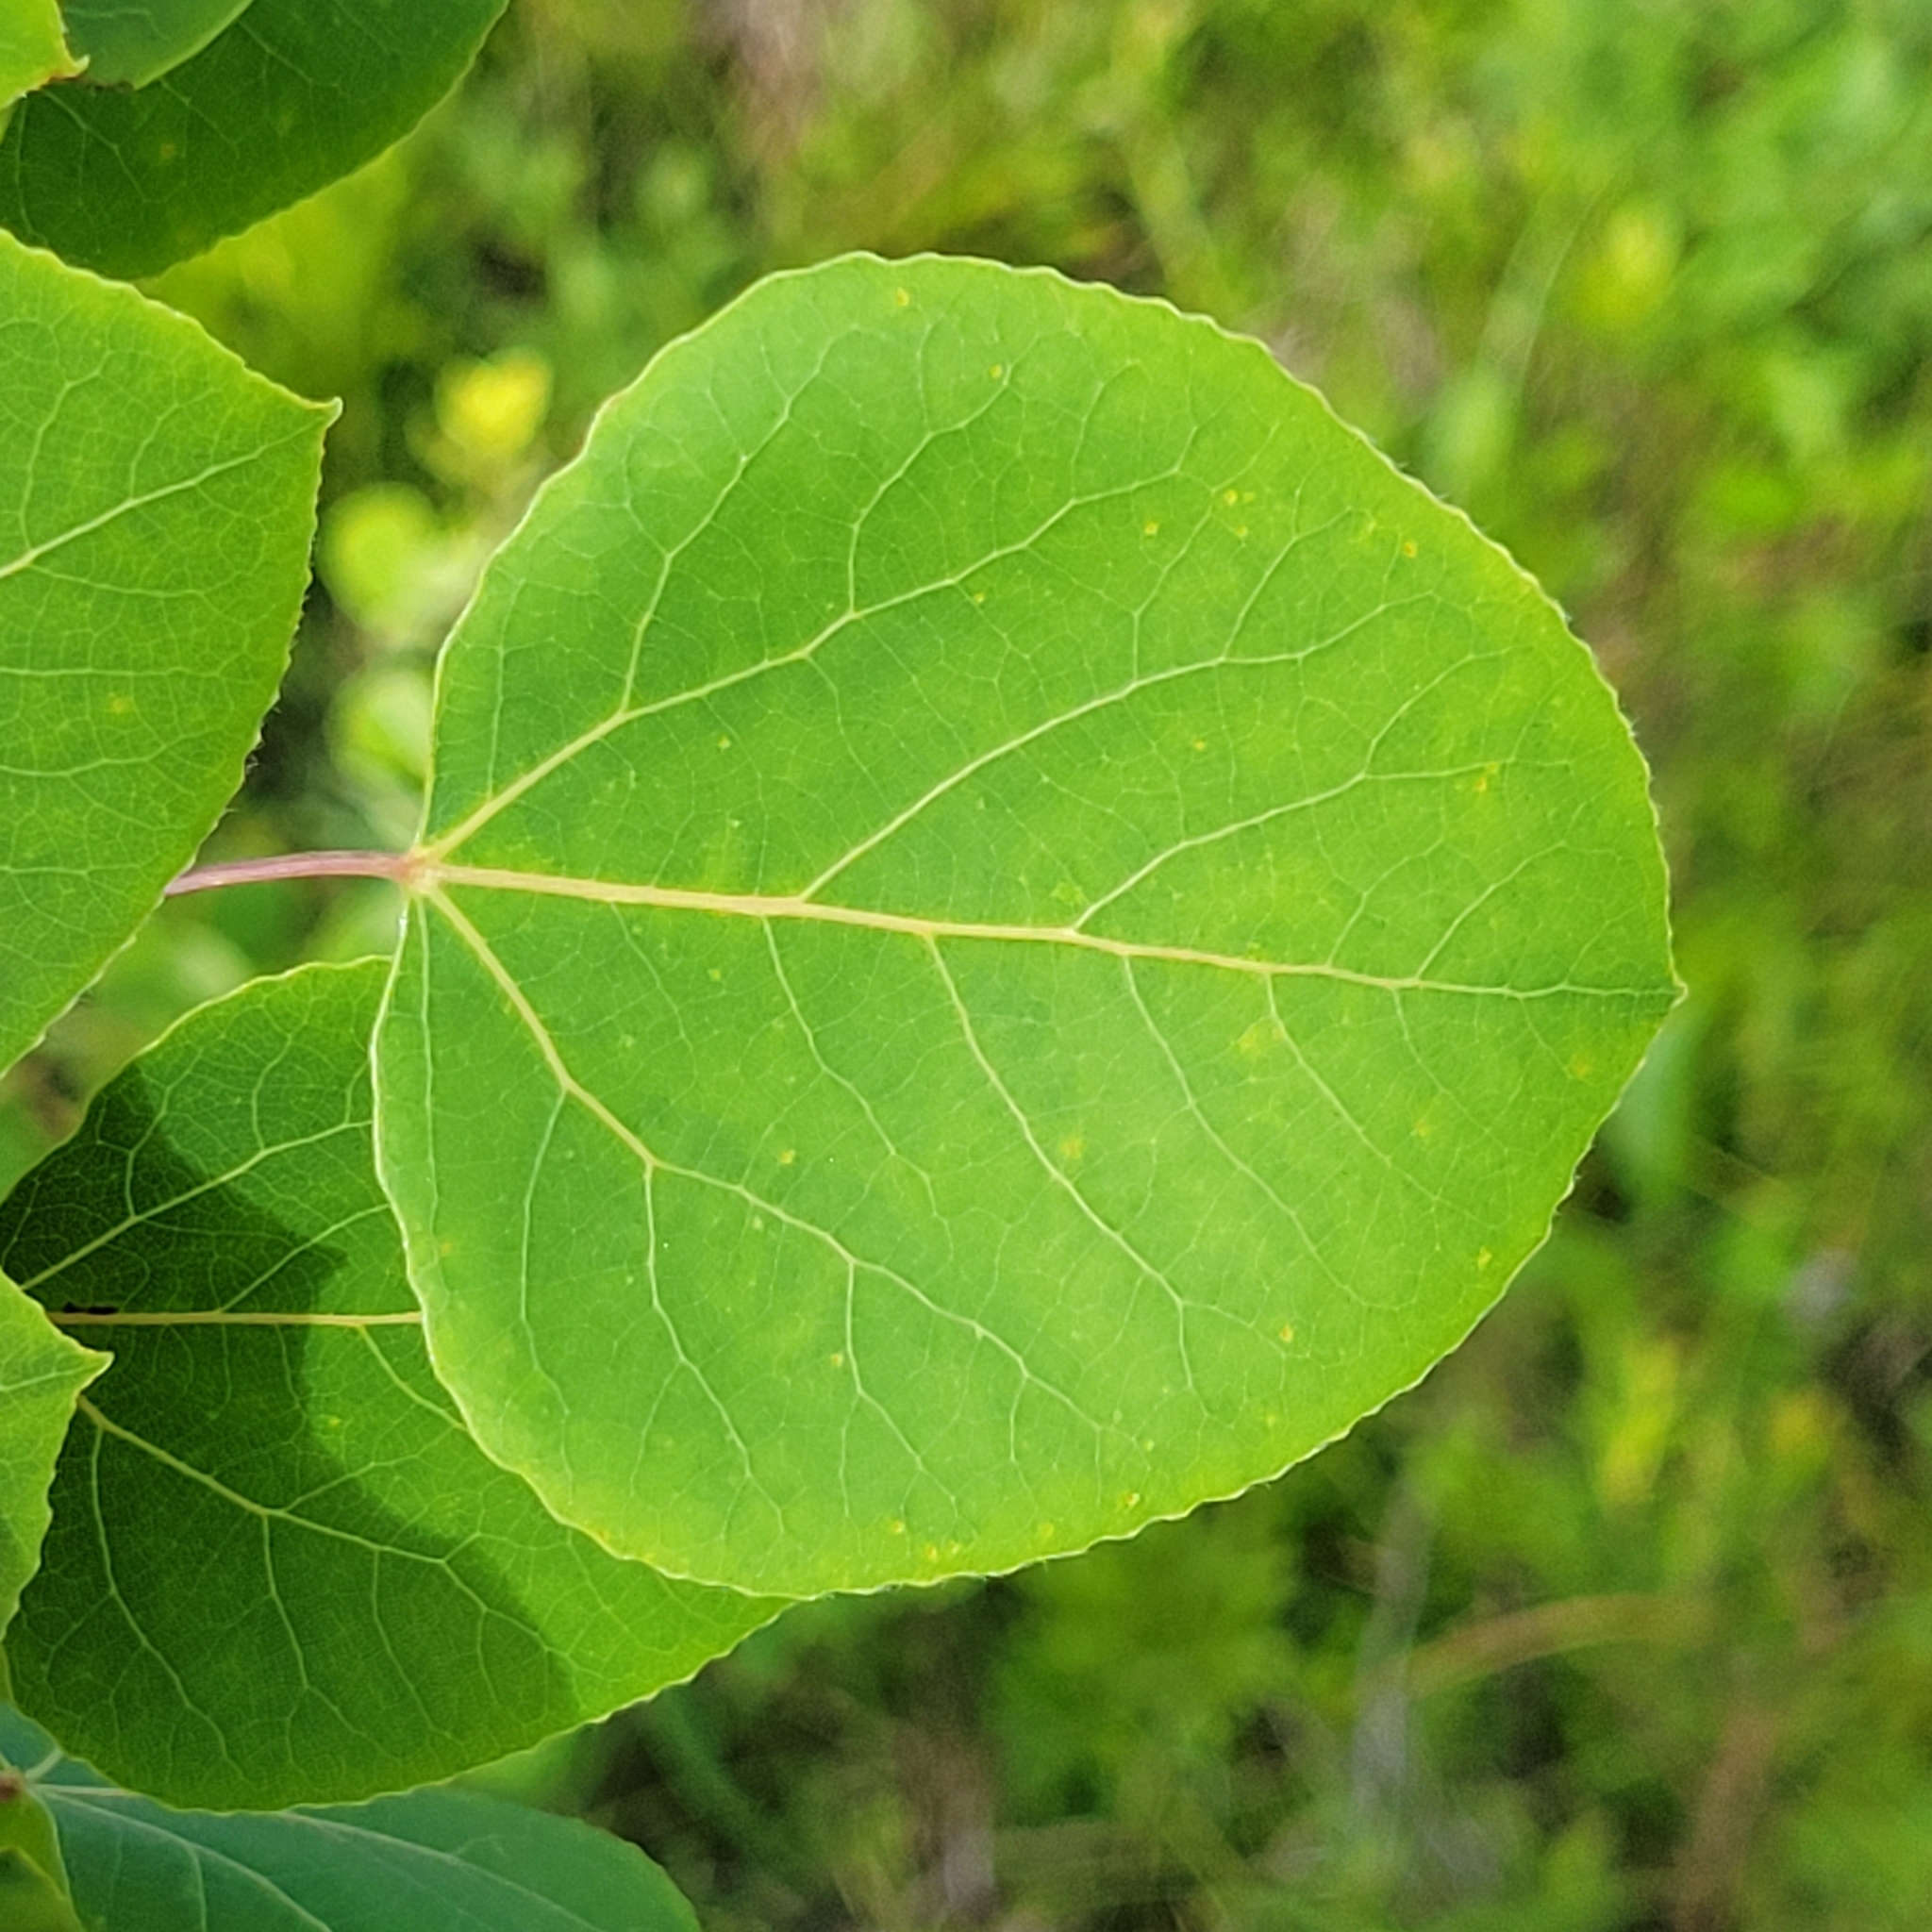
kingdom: Plantae
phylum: Tracheophyta
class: Magnoliopsida
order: Malpighiales
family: Salicaceae
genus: Populus
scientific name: Populus tremuloides
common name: Quaking aspen
